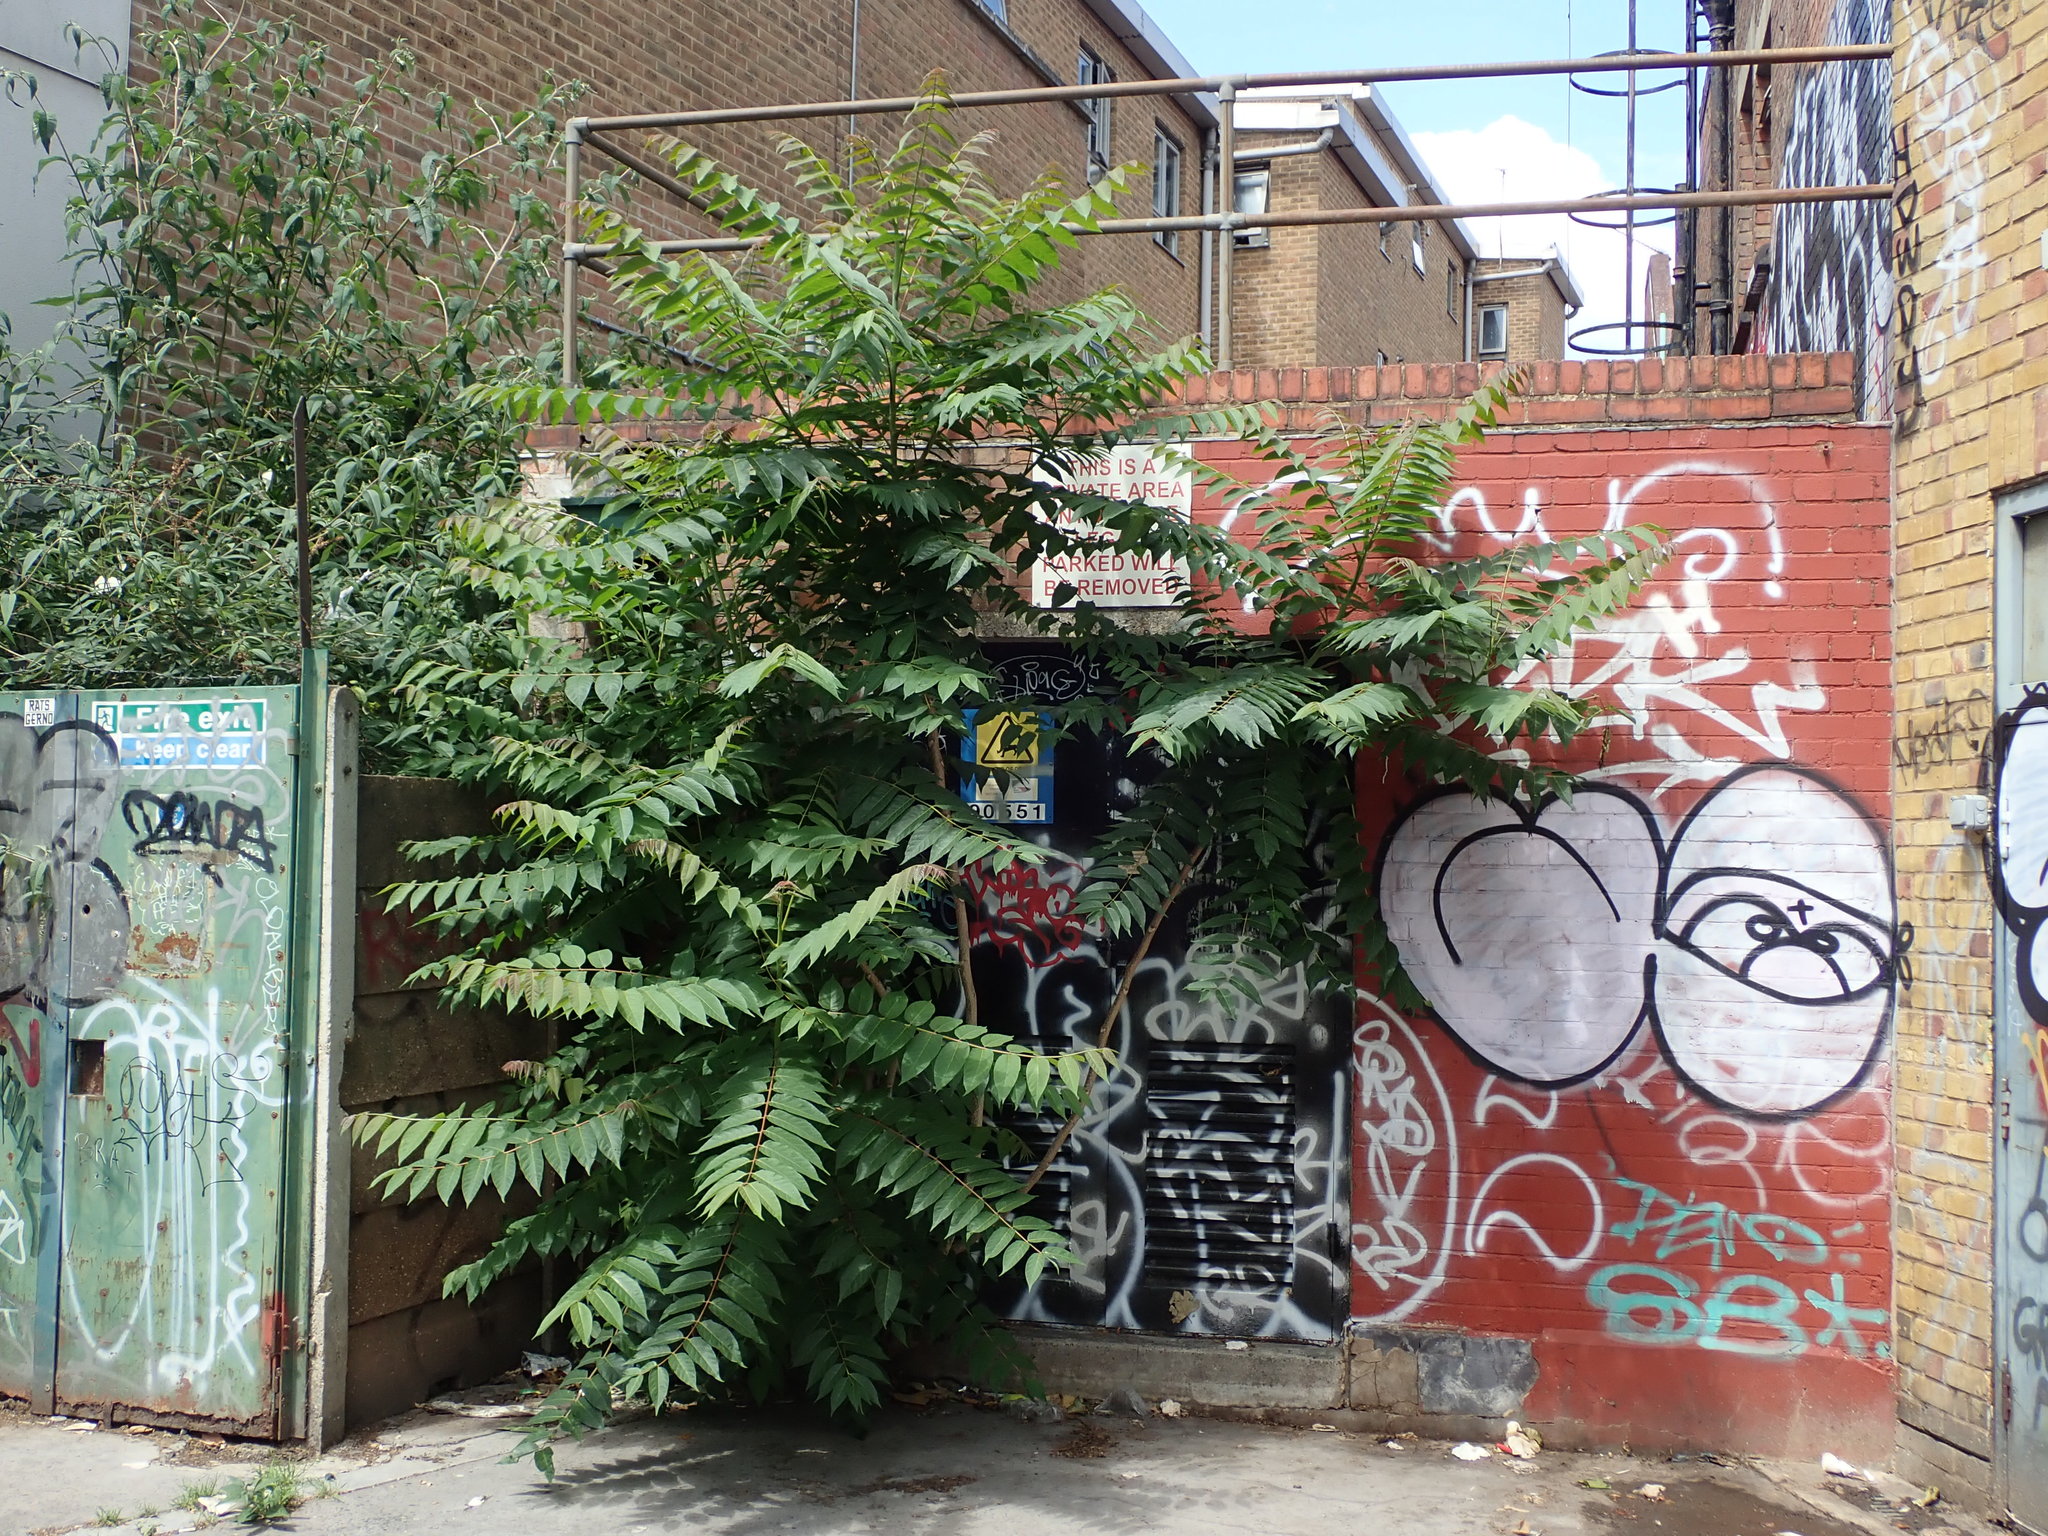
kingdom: Plantae
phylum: Tracheophyta
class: Magnoliopsida
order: Sapindales
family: Simaroubaceae
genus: Ailanthus
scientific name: Ailanthus altissima
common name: Tree-of-heaven
